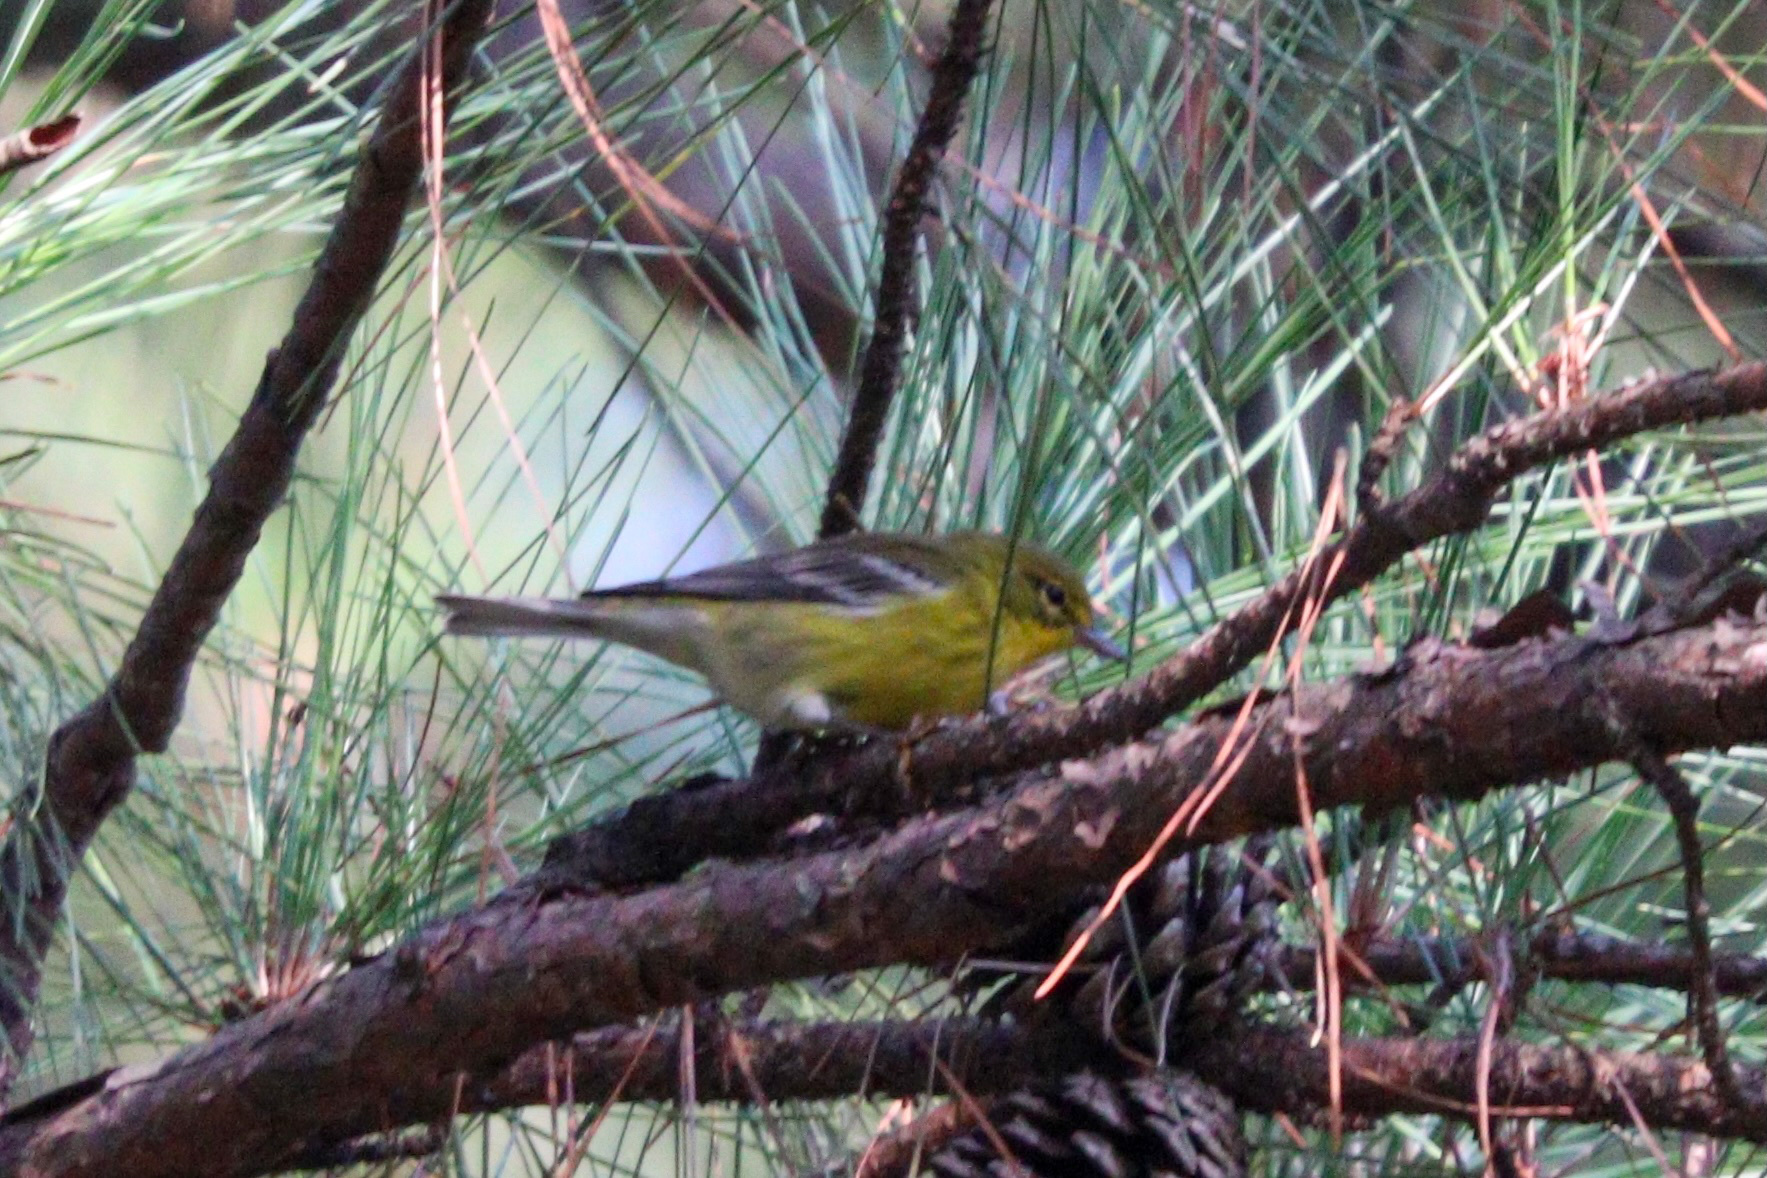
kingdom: Animalia
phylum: Chordata
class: Aves
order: Passeriformes
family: Parulidae
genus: Setophaga
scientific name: Setophaga pinus
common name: Pine warbler
